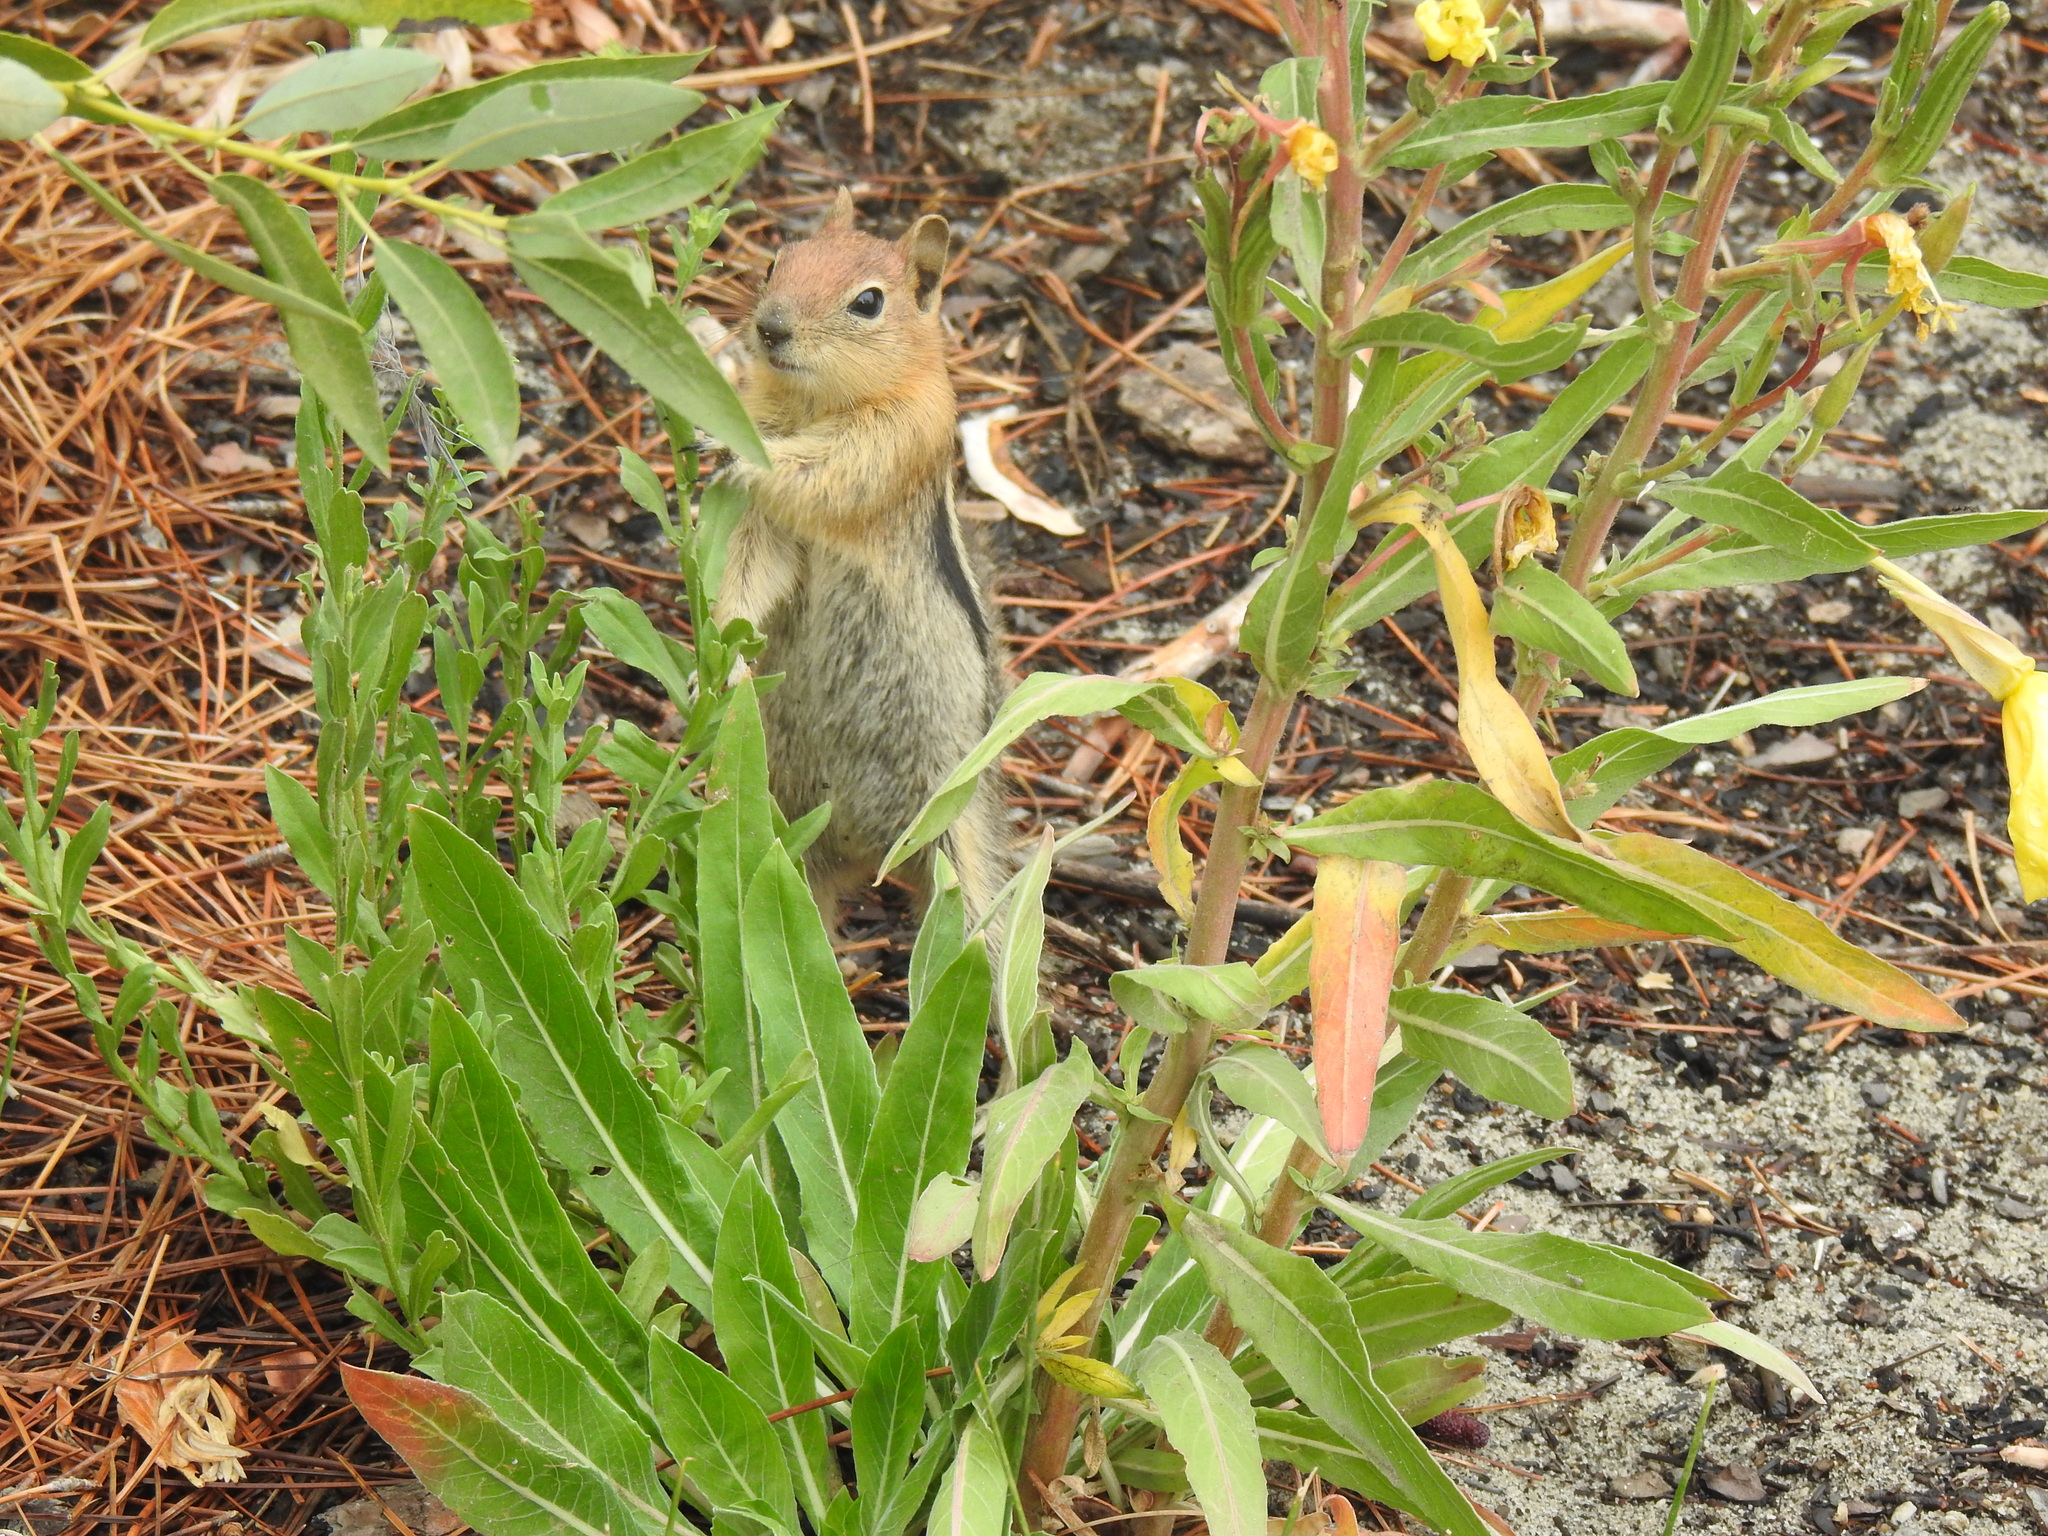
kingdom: Animalia
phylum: Chordata
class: Mammalia
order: Rodentia
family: Sciuridae
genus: Callospermophilus
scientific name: Callospermophilus lateralis
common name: Golden-mantled ground squirrel
